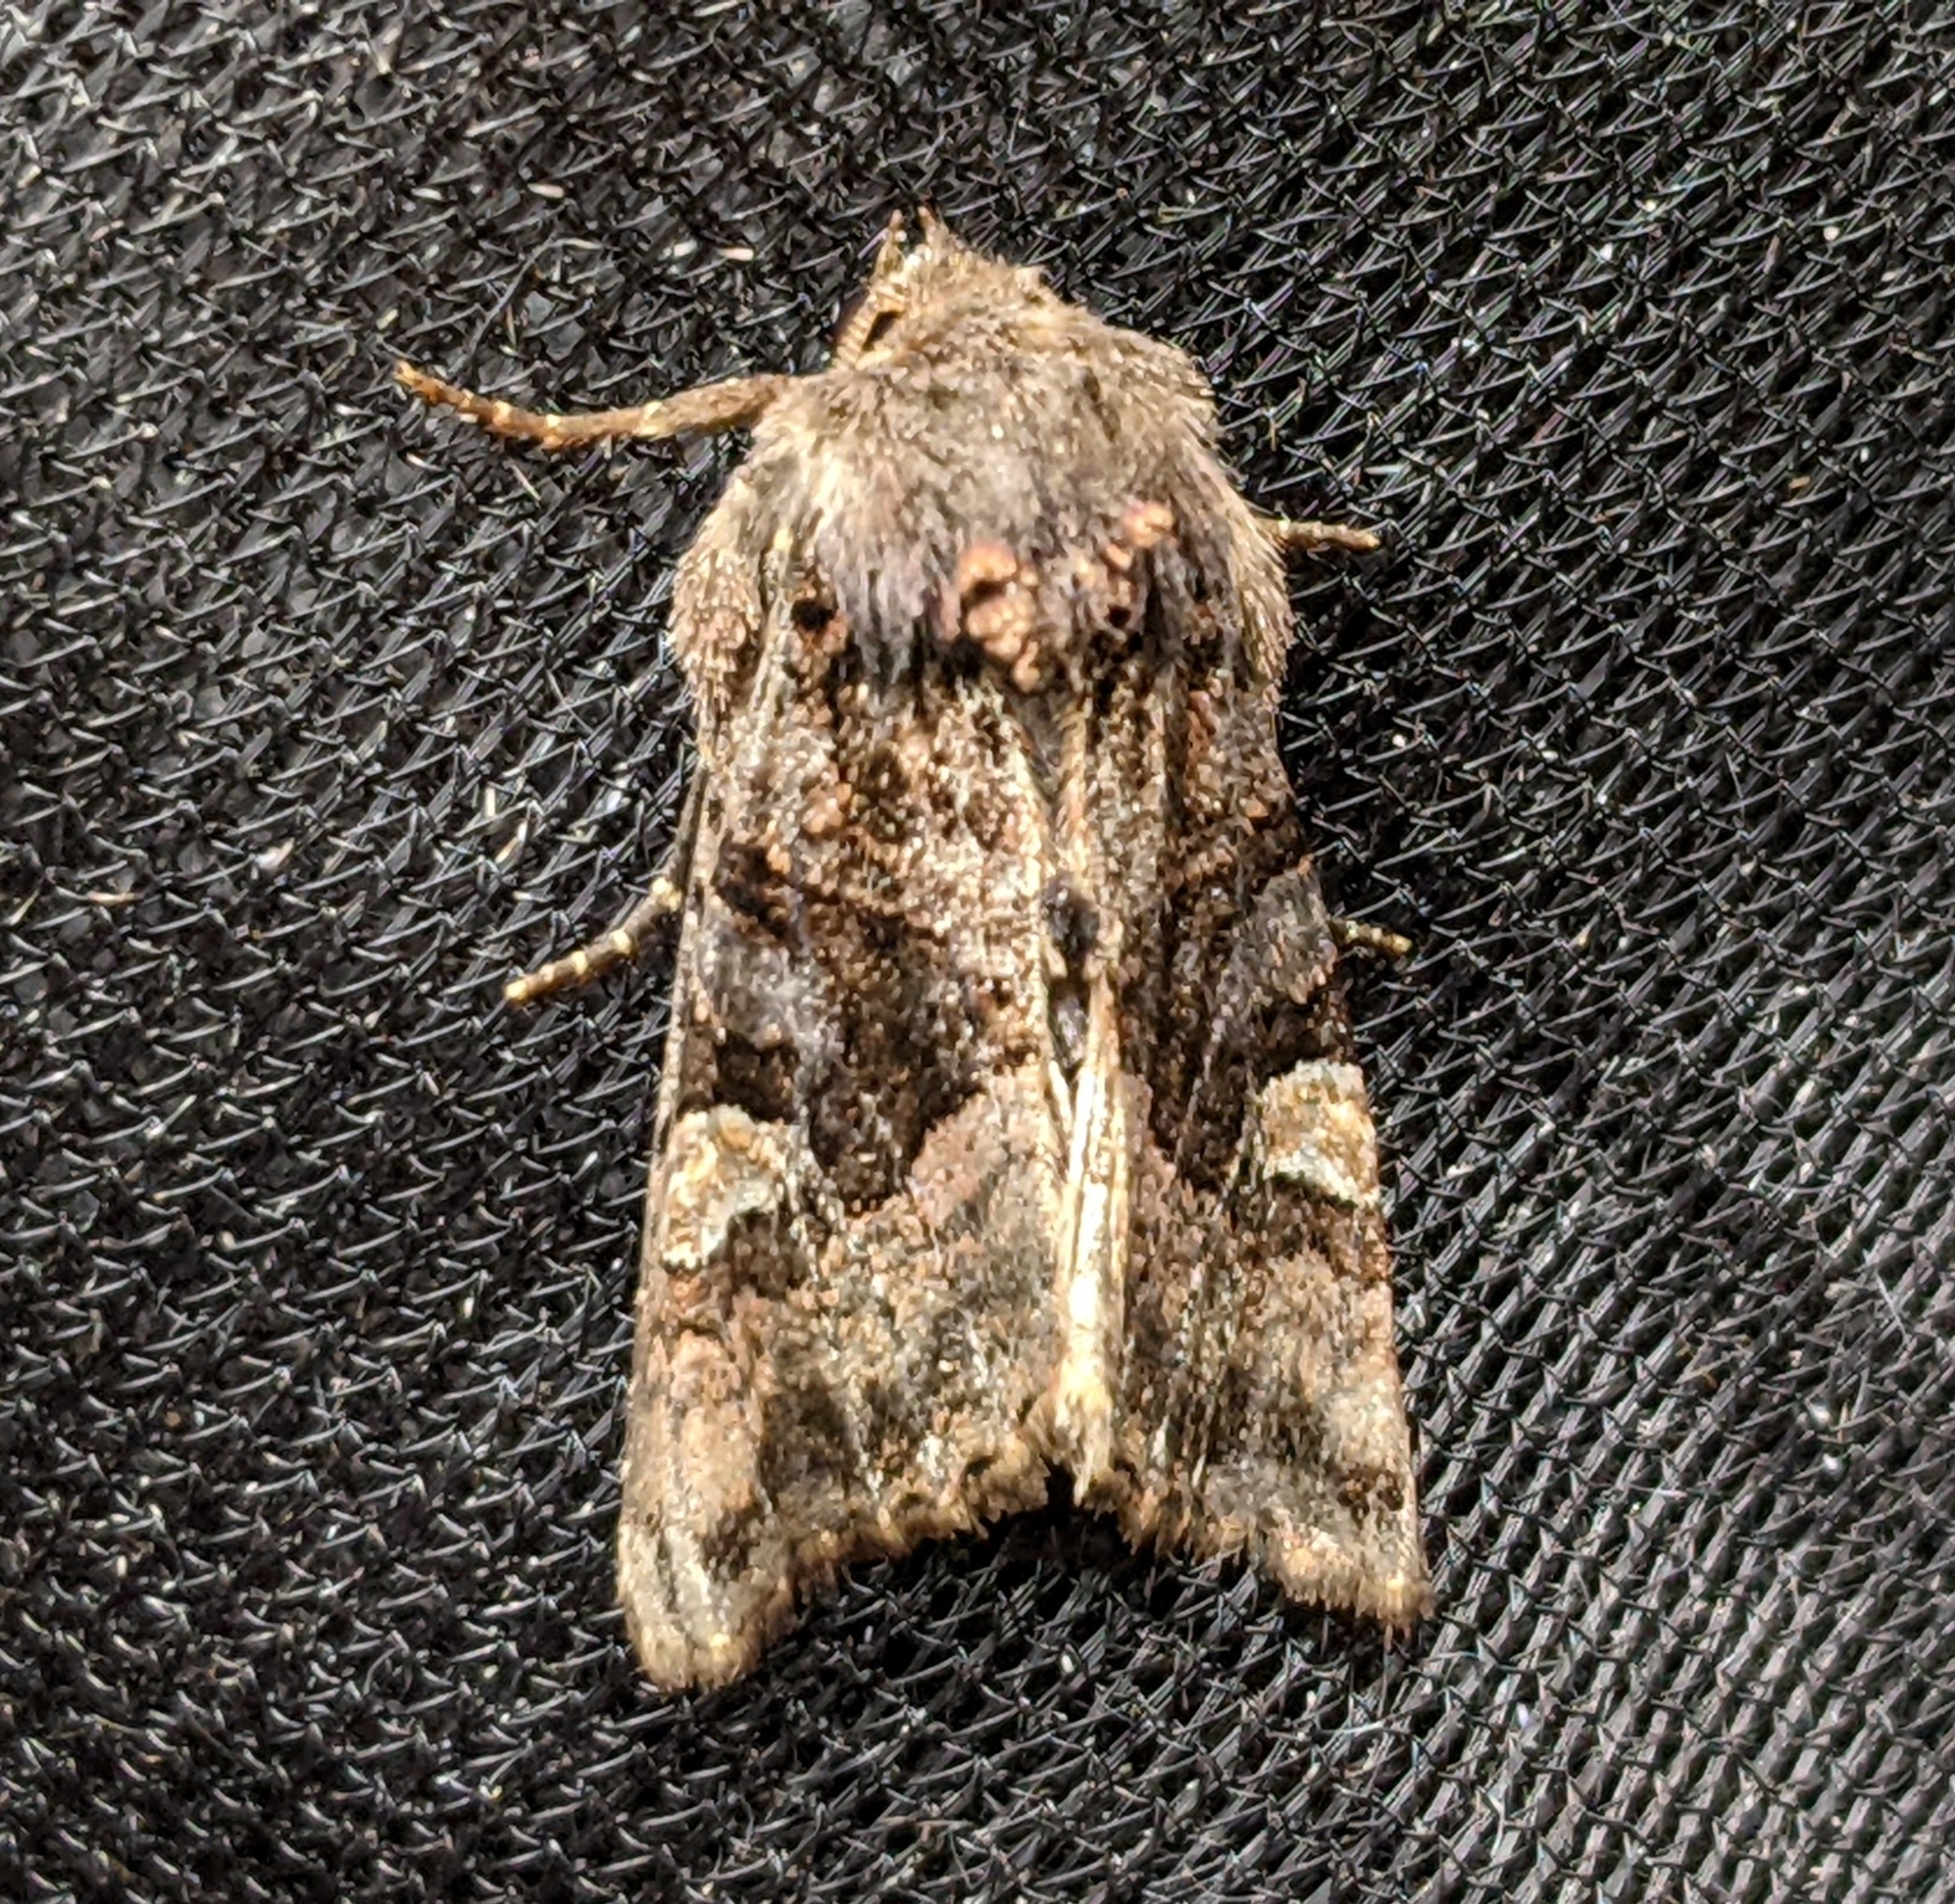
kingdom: Animalia
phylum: Arthropoda
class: Insecta
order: Lepidoptera
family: Noctuidae
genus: Euplexia
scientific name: Euplexia benesimilis
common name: American angle shades
